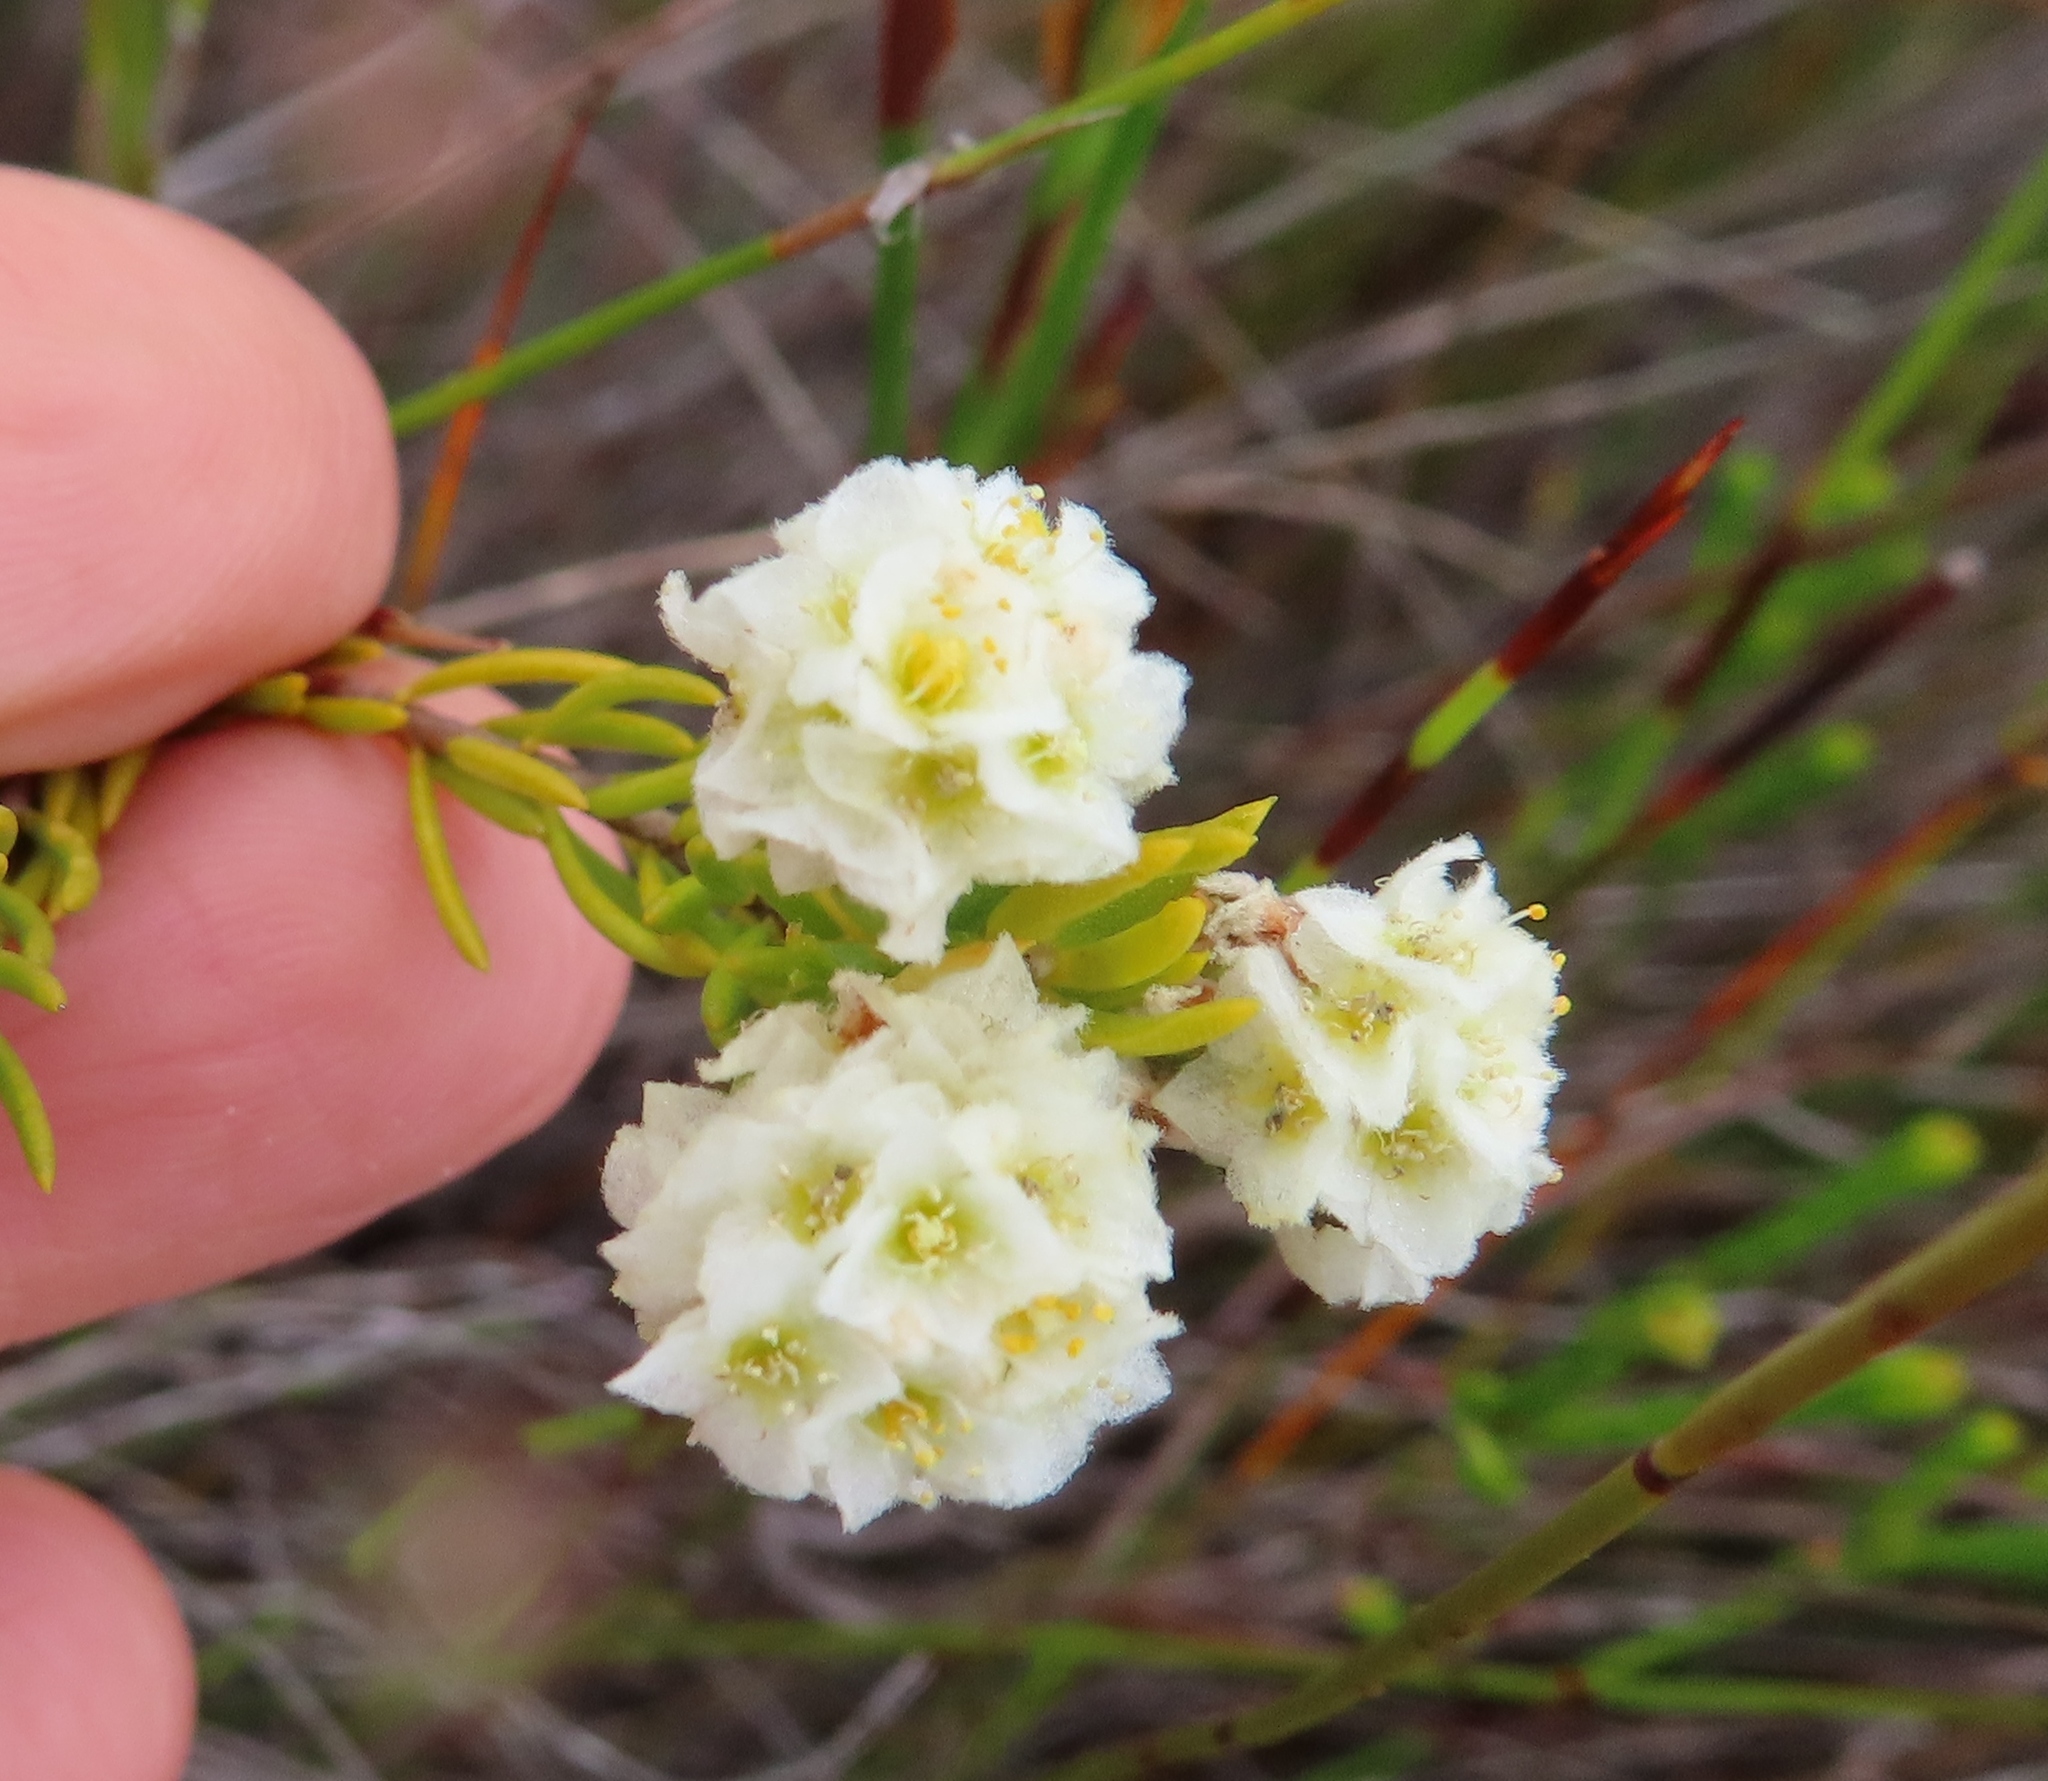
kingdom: Plantae
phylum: Tracheophyta
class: Magnoliopsida
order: Malvales
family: Thymelaeaceae
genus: Lachnaea
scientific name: Lachnaea densiflora
